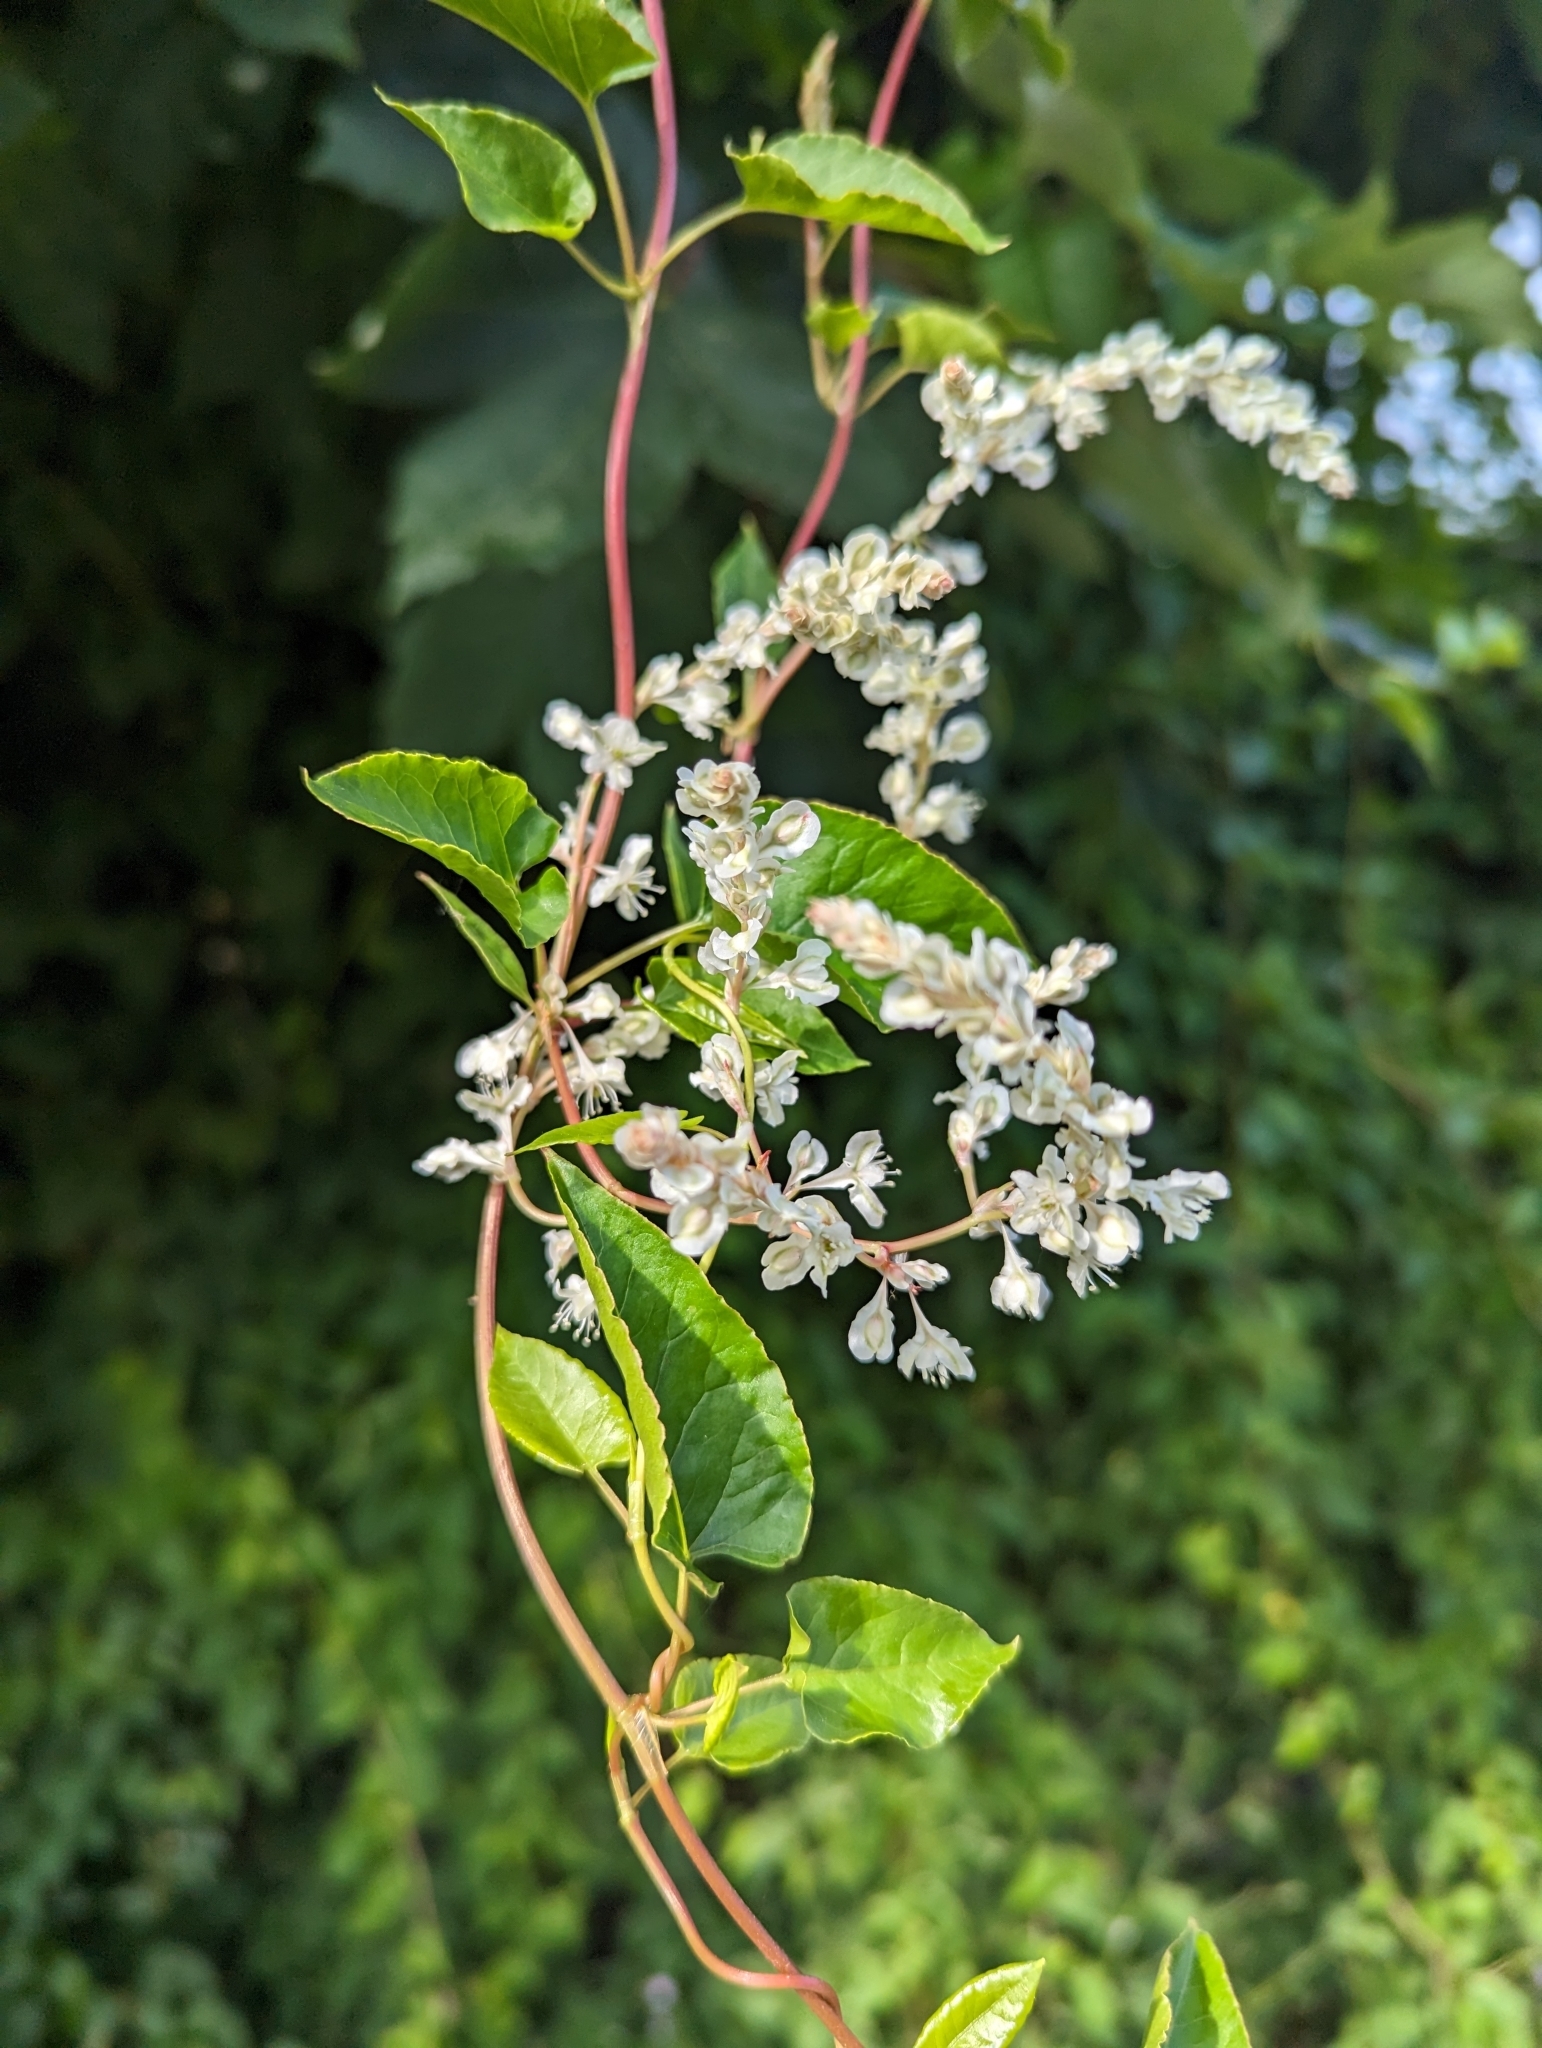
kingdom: Plantae
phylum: Tracheophyta
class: Magnoliopsida
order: Caryophyllales
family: Polygonaceae
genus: Fallopia
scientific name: Fallopia baldschuanica
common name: Russian-vine
